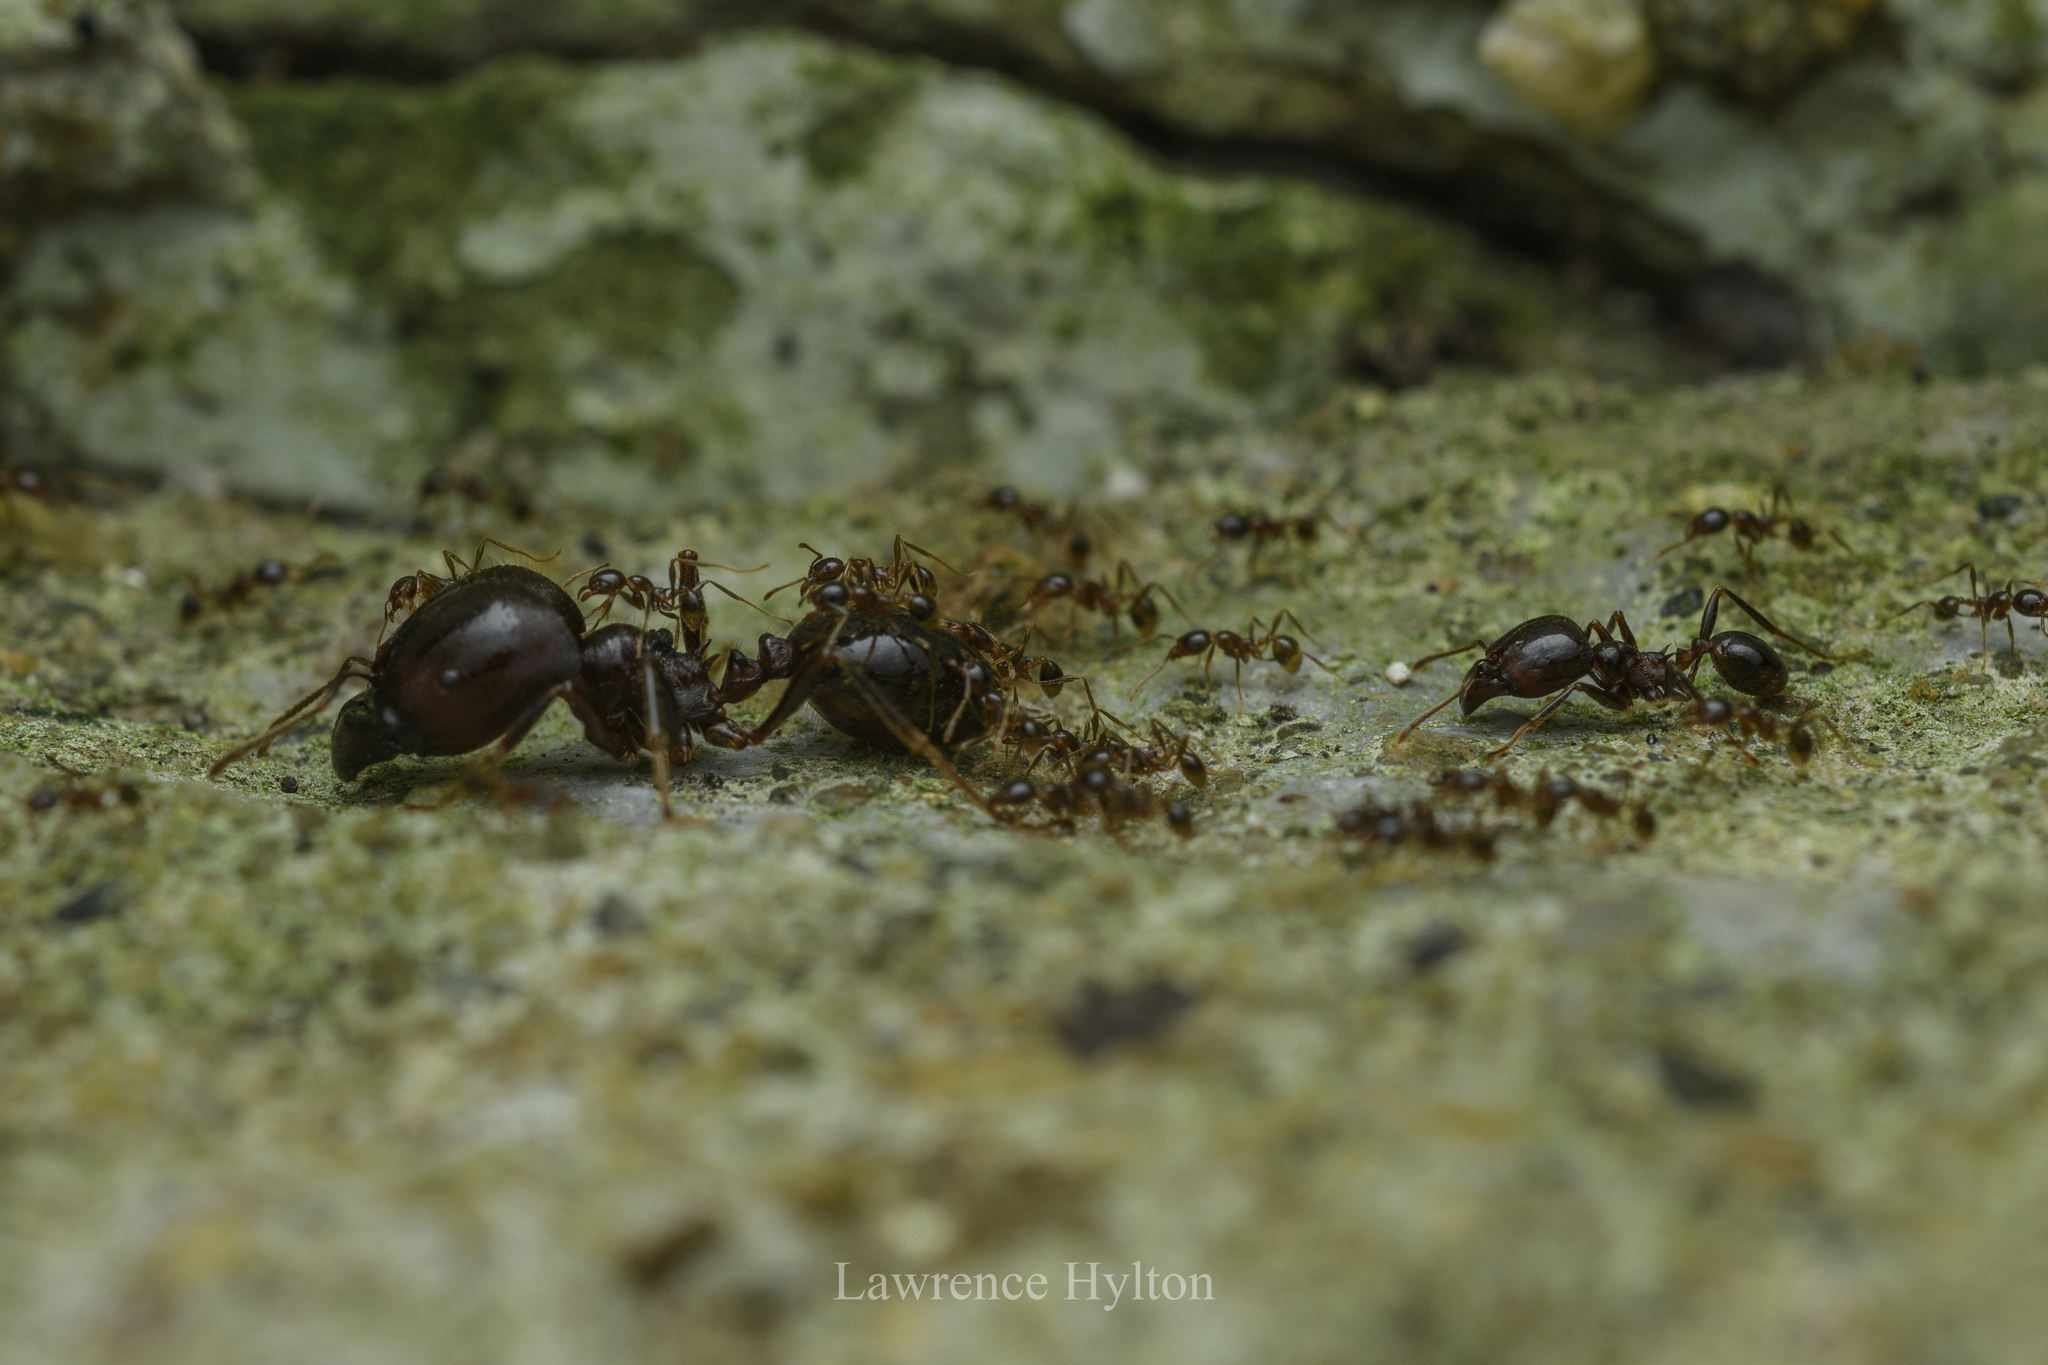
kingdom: Animalia
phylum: Arthropoda
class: Insecta
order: Hymenoptera
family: Formicidae
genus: Pheidologeton
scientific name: Pheidologeton diversus
